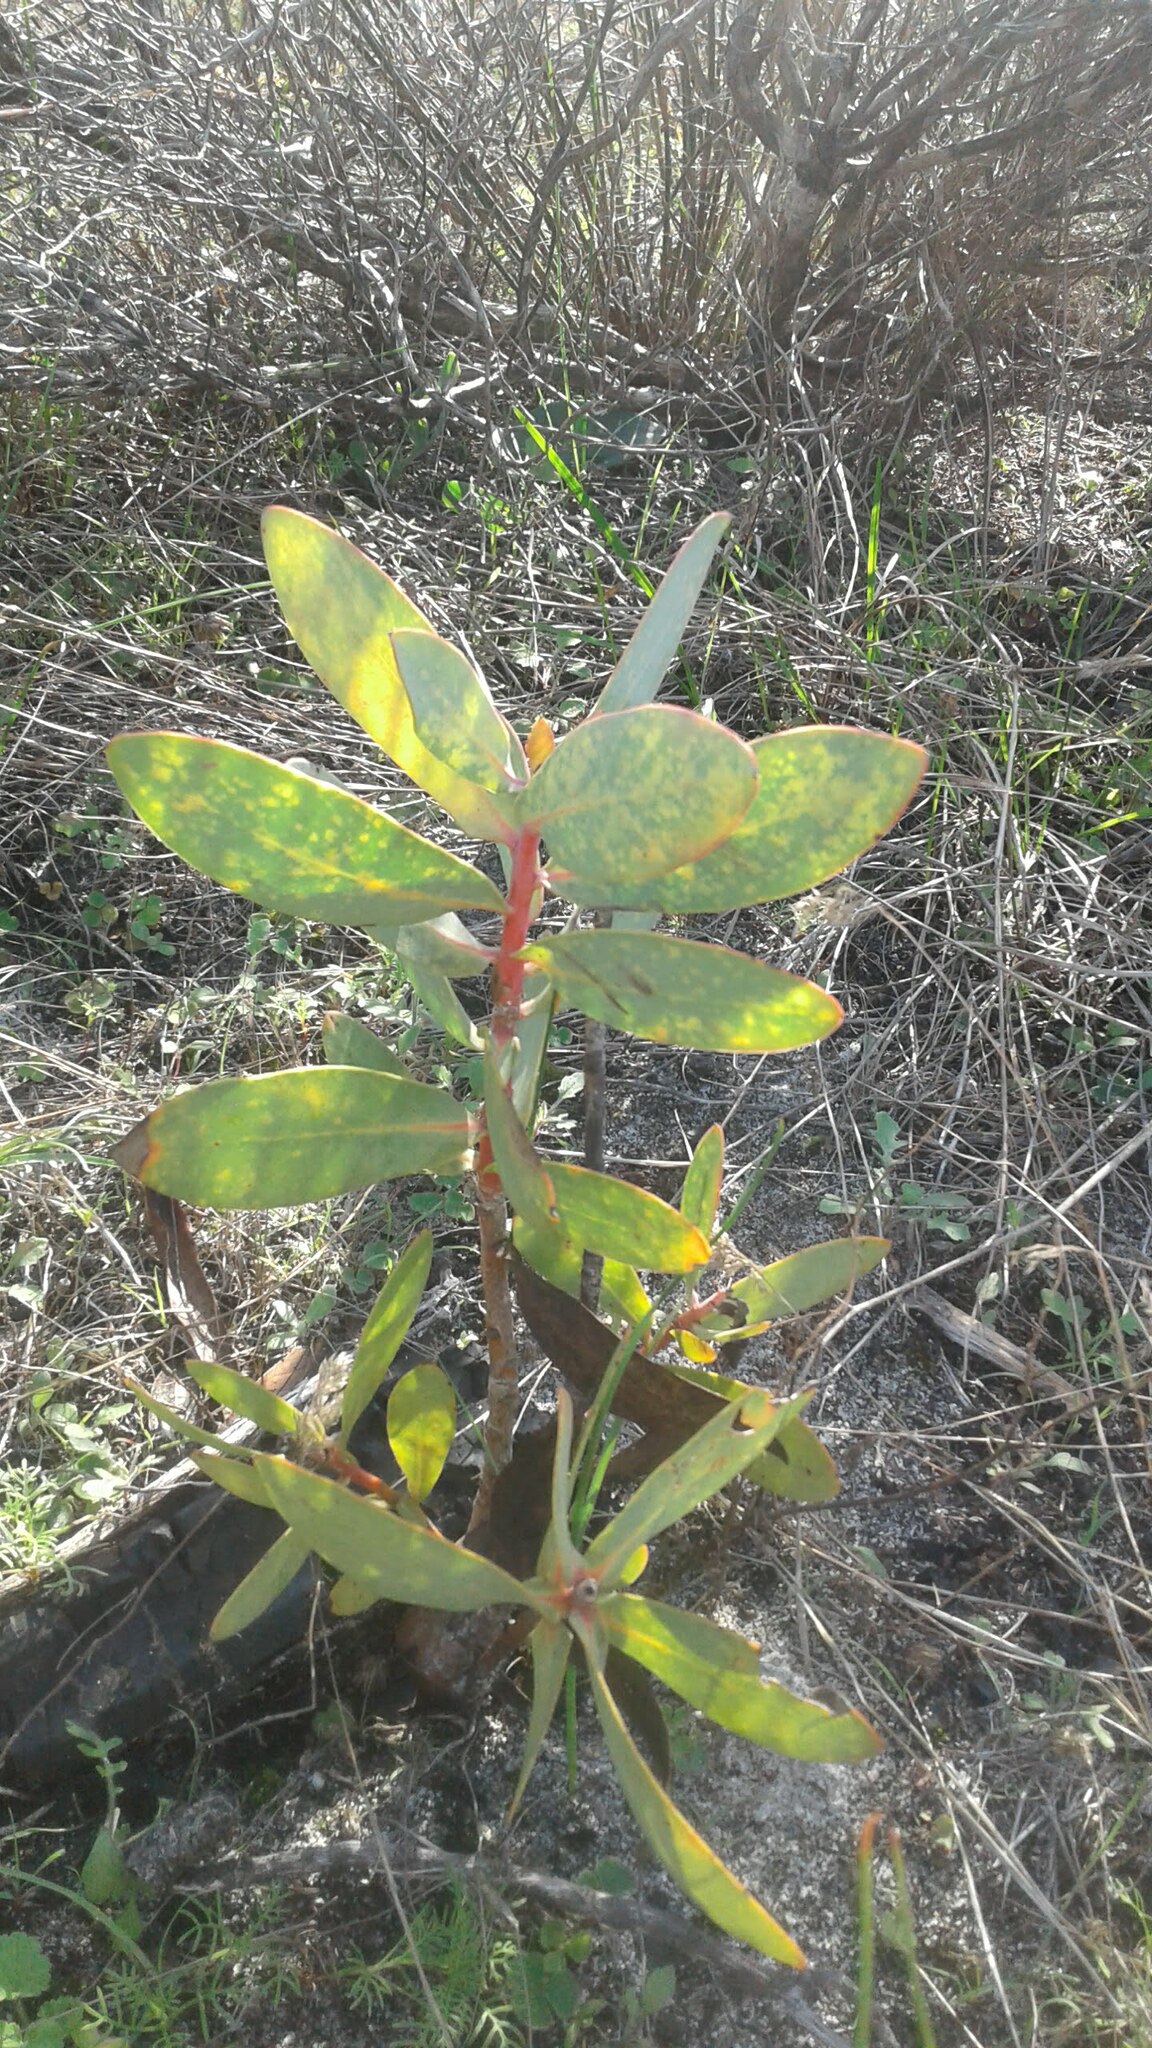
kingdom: Plantae
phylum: Tracheophyta
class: Magnoliopsida
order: Proteales
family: Proteaceae
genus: Protea
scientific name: Protea nitida
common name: Tree protea
